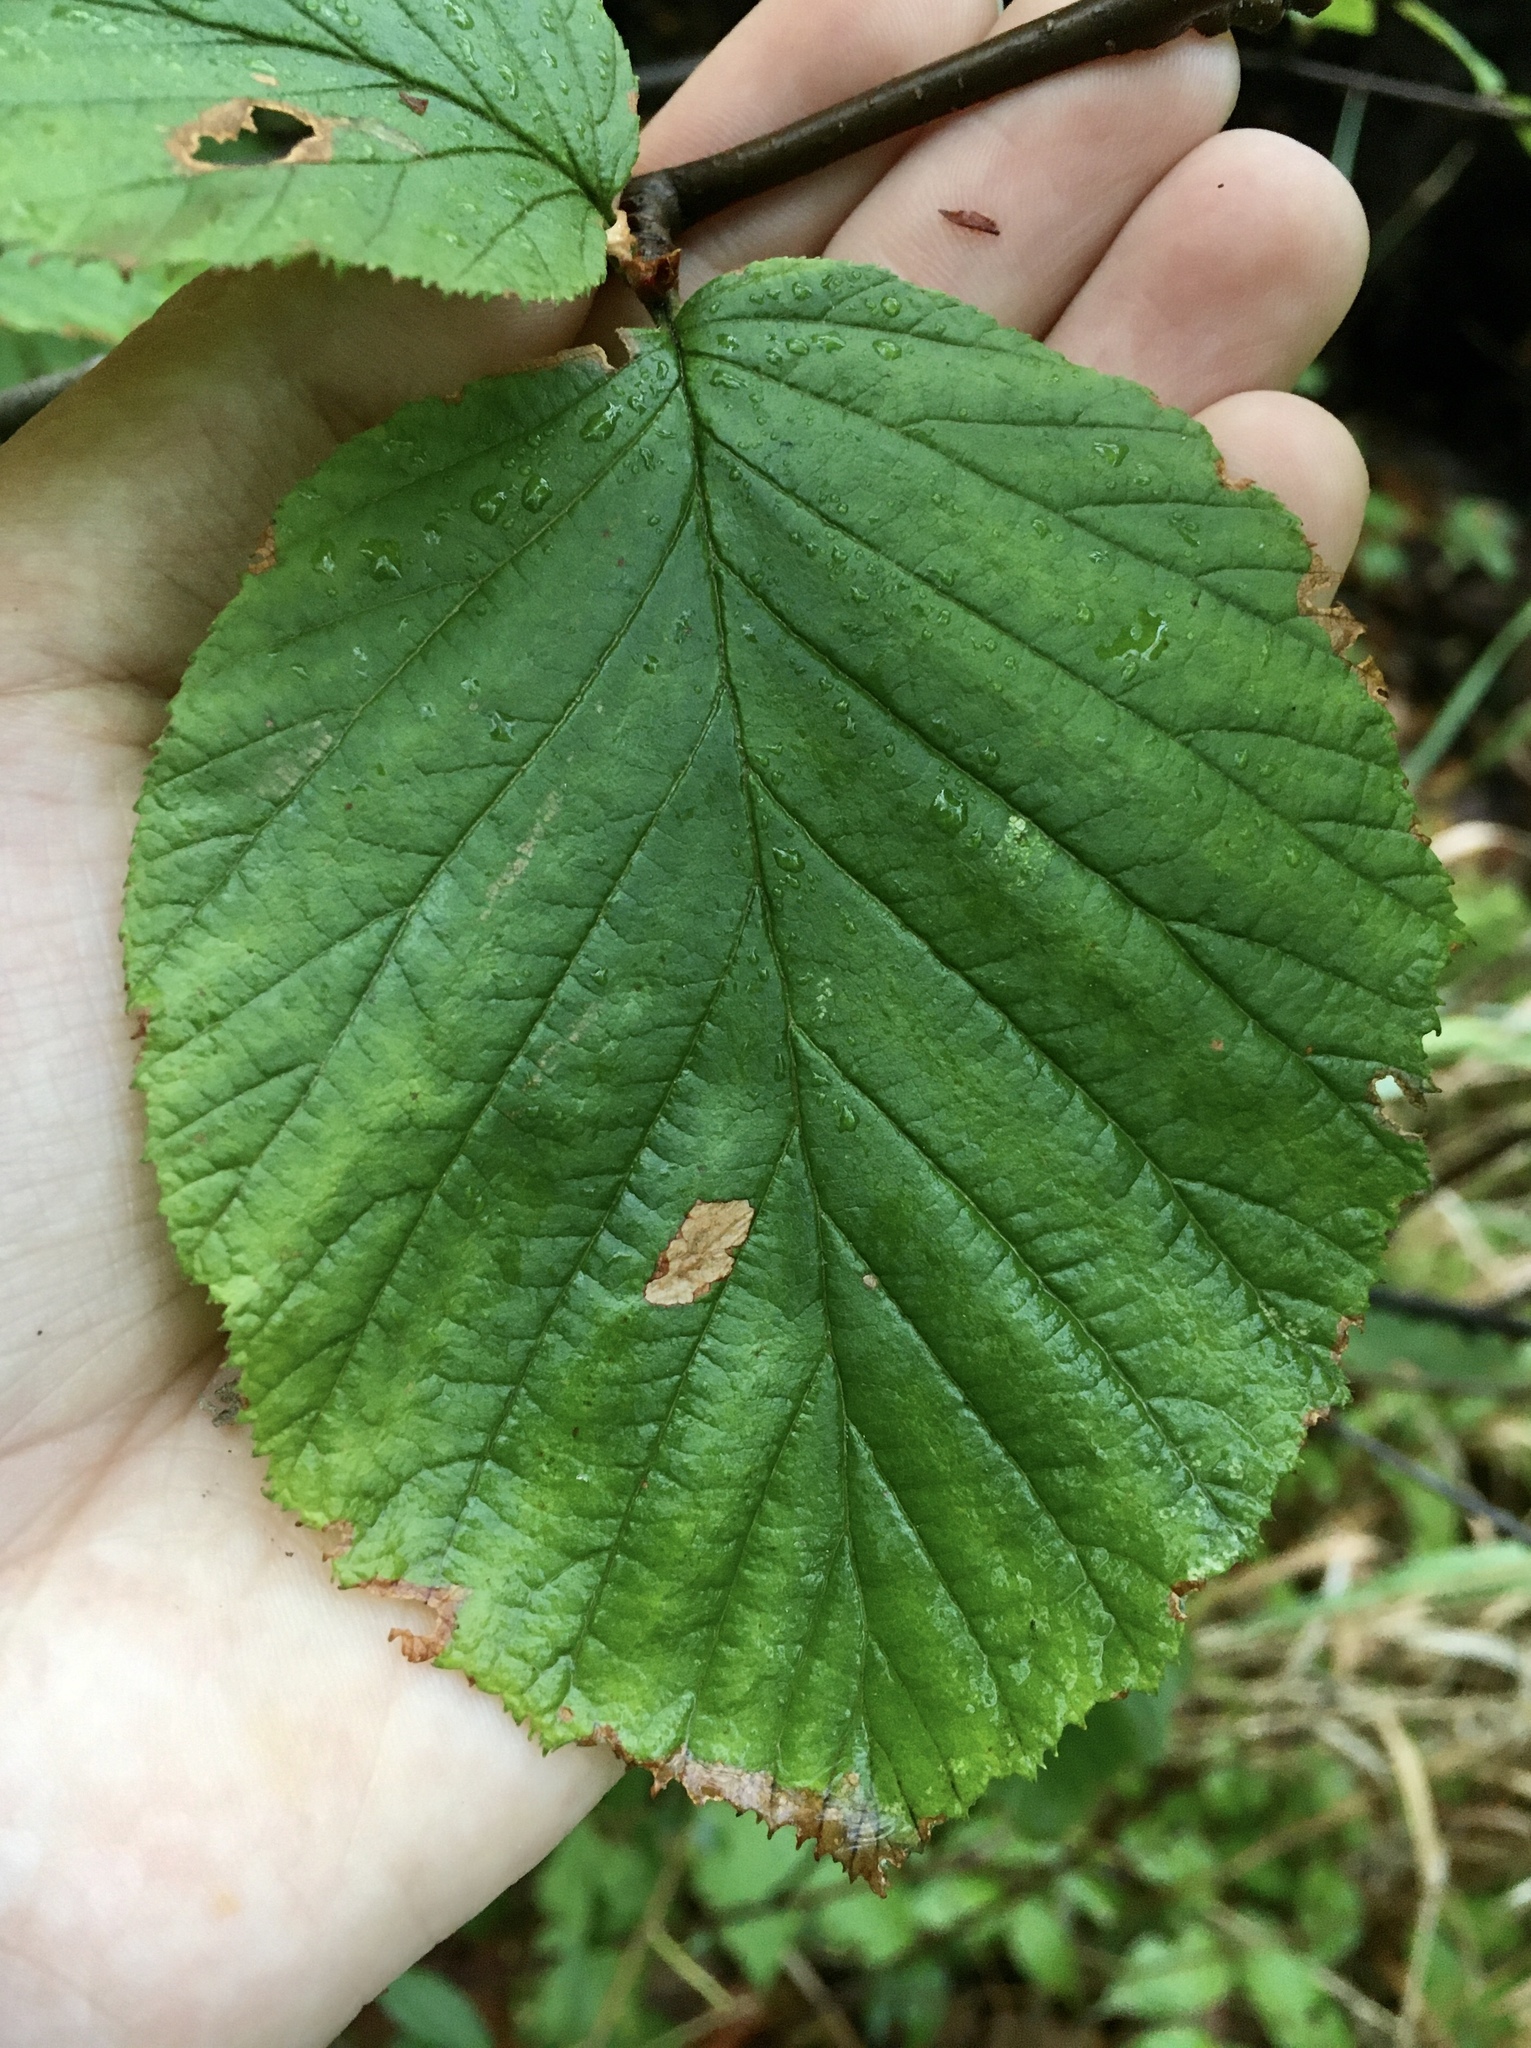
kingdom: Plantae
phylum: Tracheophyta
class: Magnoliopsida
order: Fagales
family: Betulaceae
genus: Alnus
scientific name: Alnus alnobetula
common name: Green alder
